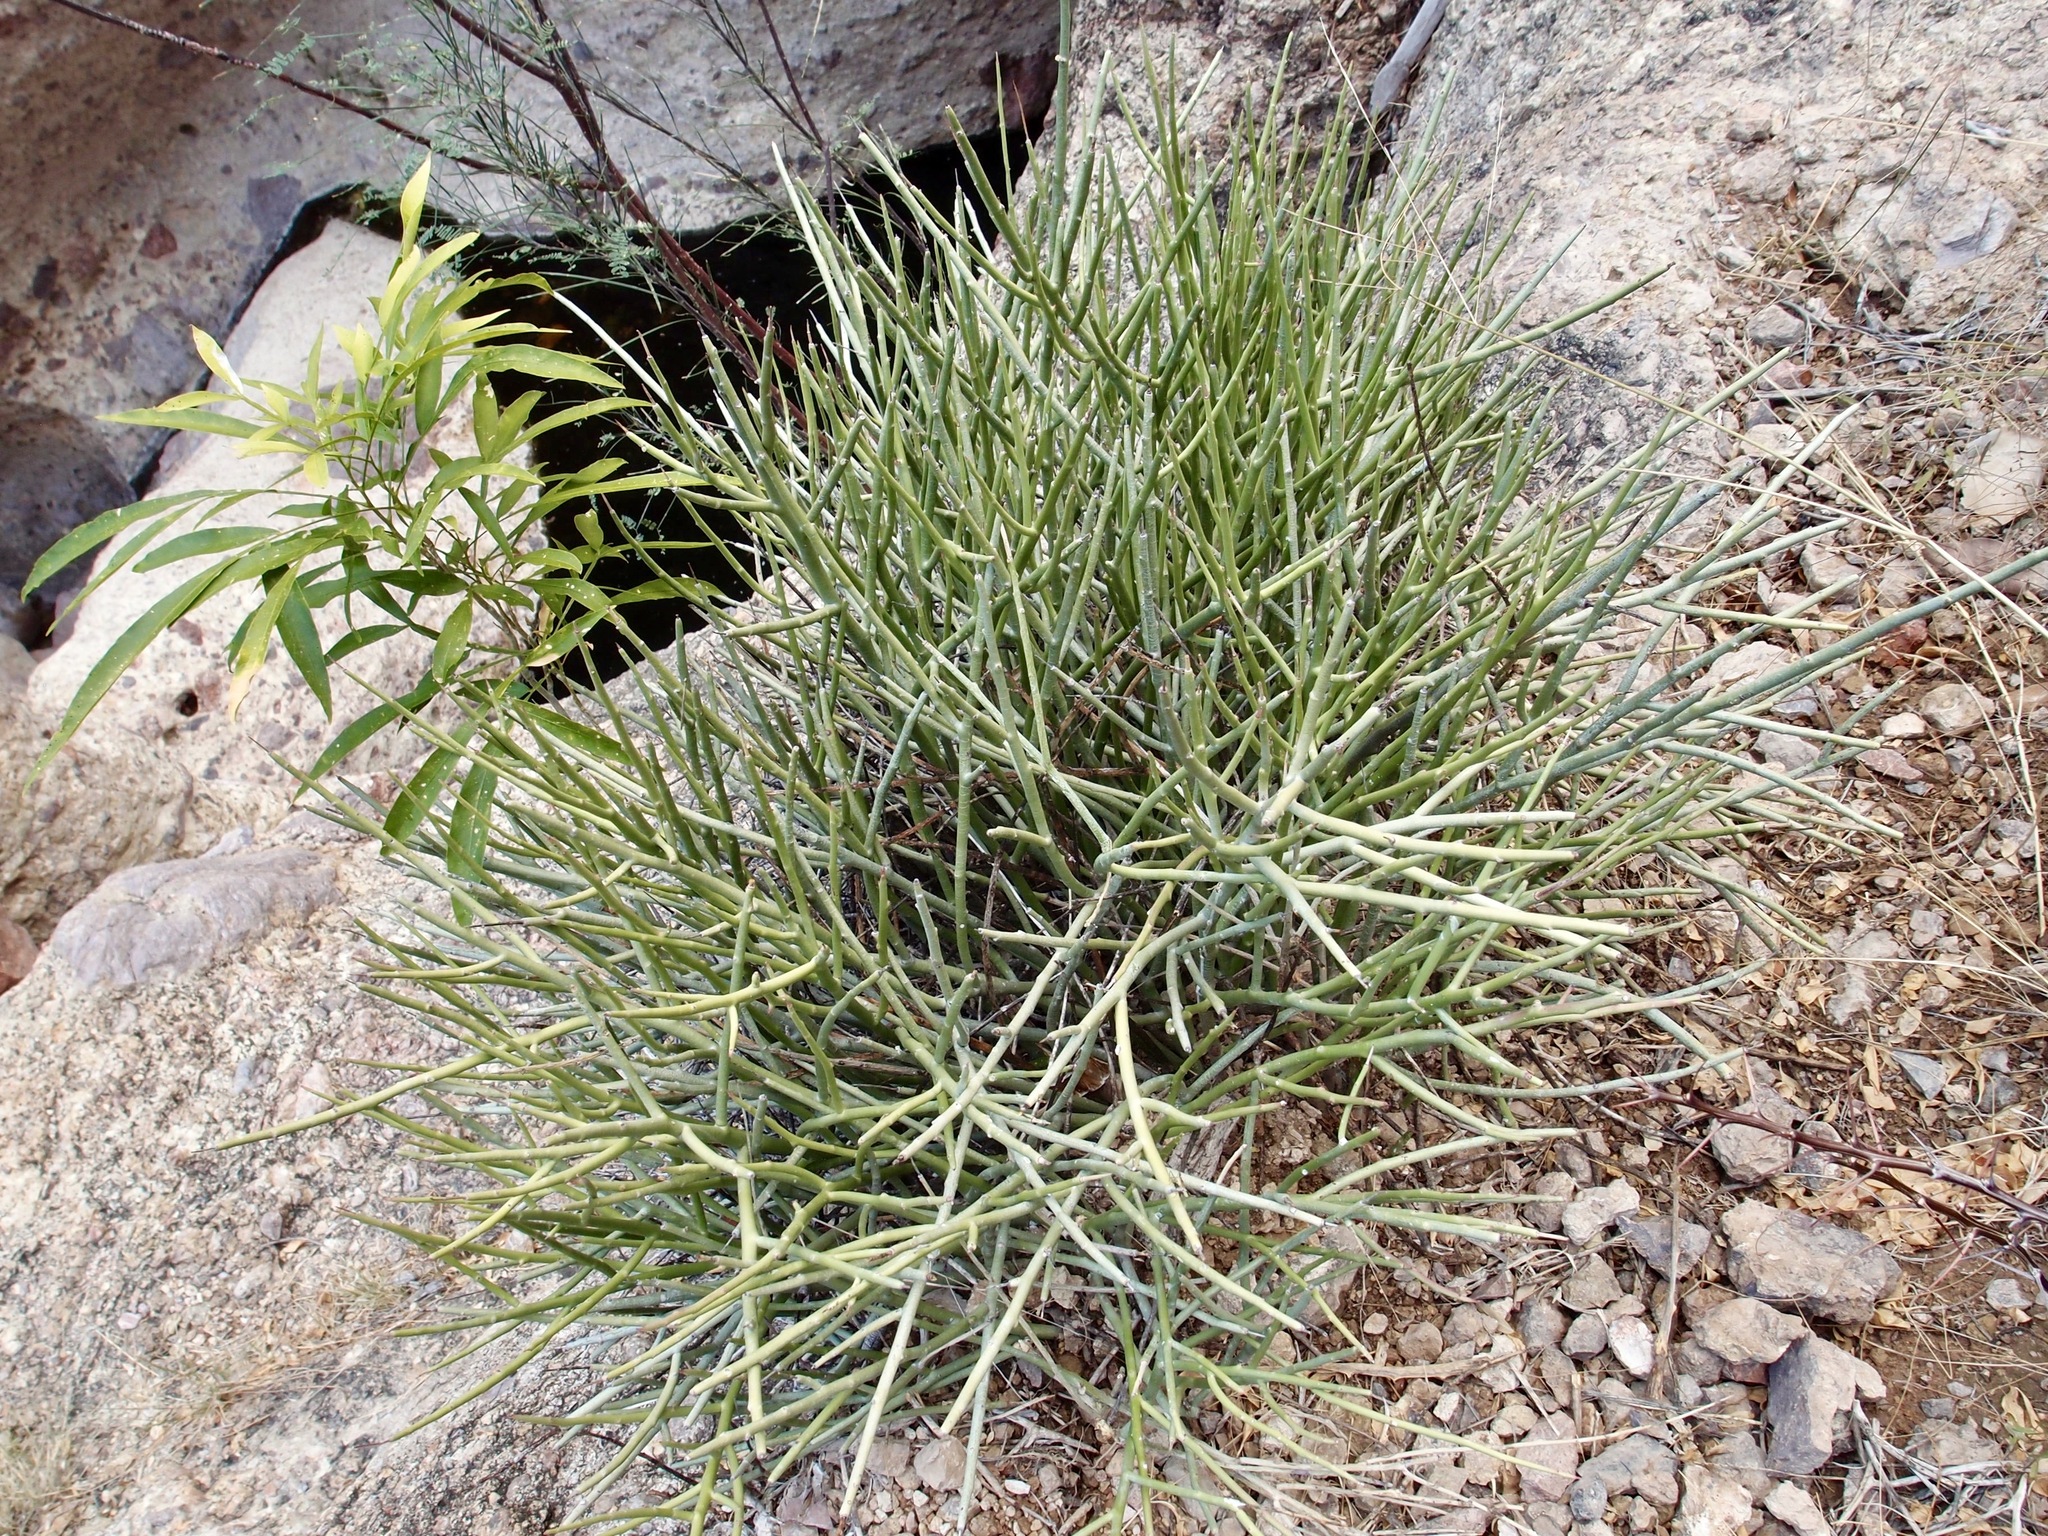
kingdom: Plantae
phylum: Tracheophyta
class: Magnoliopsida
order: Malpighiales
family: Euphorbiaceae
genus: Euphorbia
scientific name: Euphorbia ceroderma
